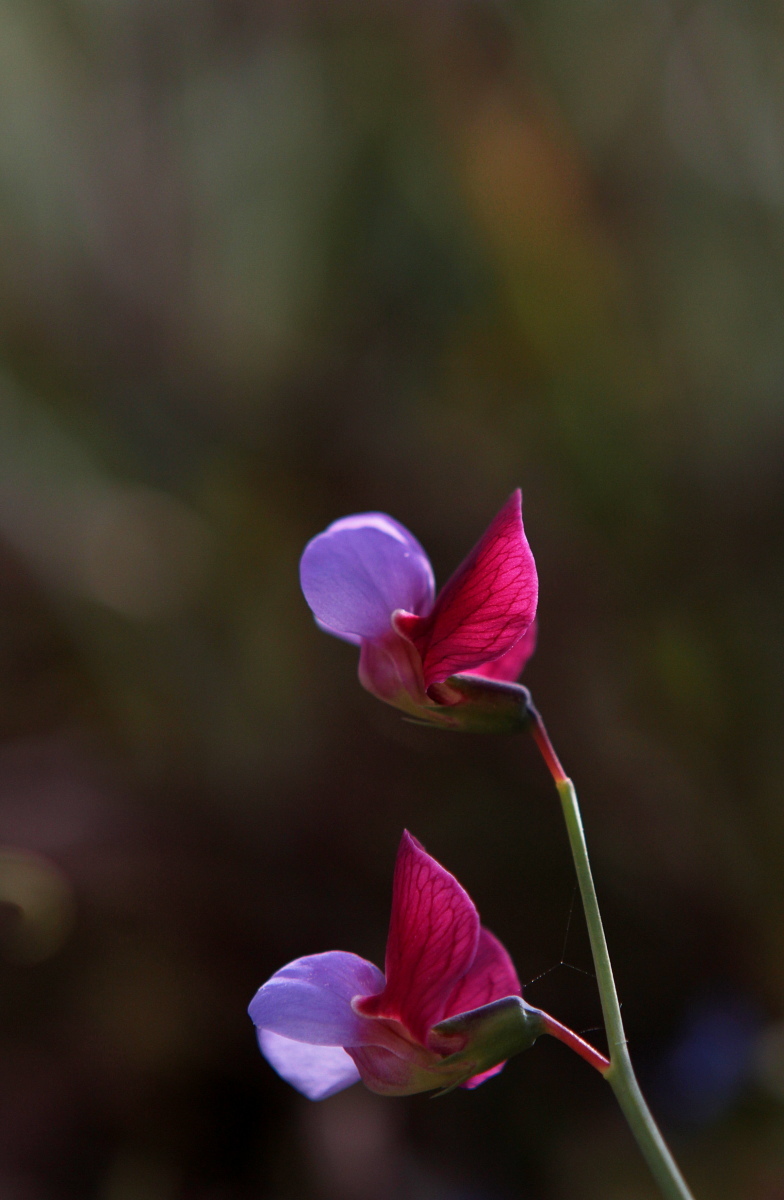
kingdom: Plantae
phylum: Tracheophyta
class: Magnoliopsida
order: Fabales
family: Fabaceae
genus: Lathyrus
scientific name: Lathyrus clymenum
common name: Spanish vetchling
